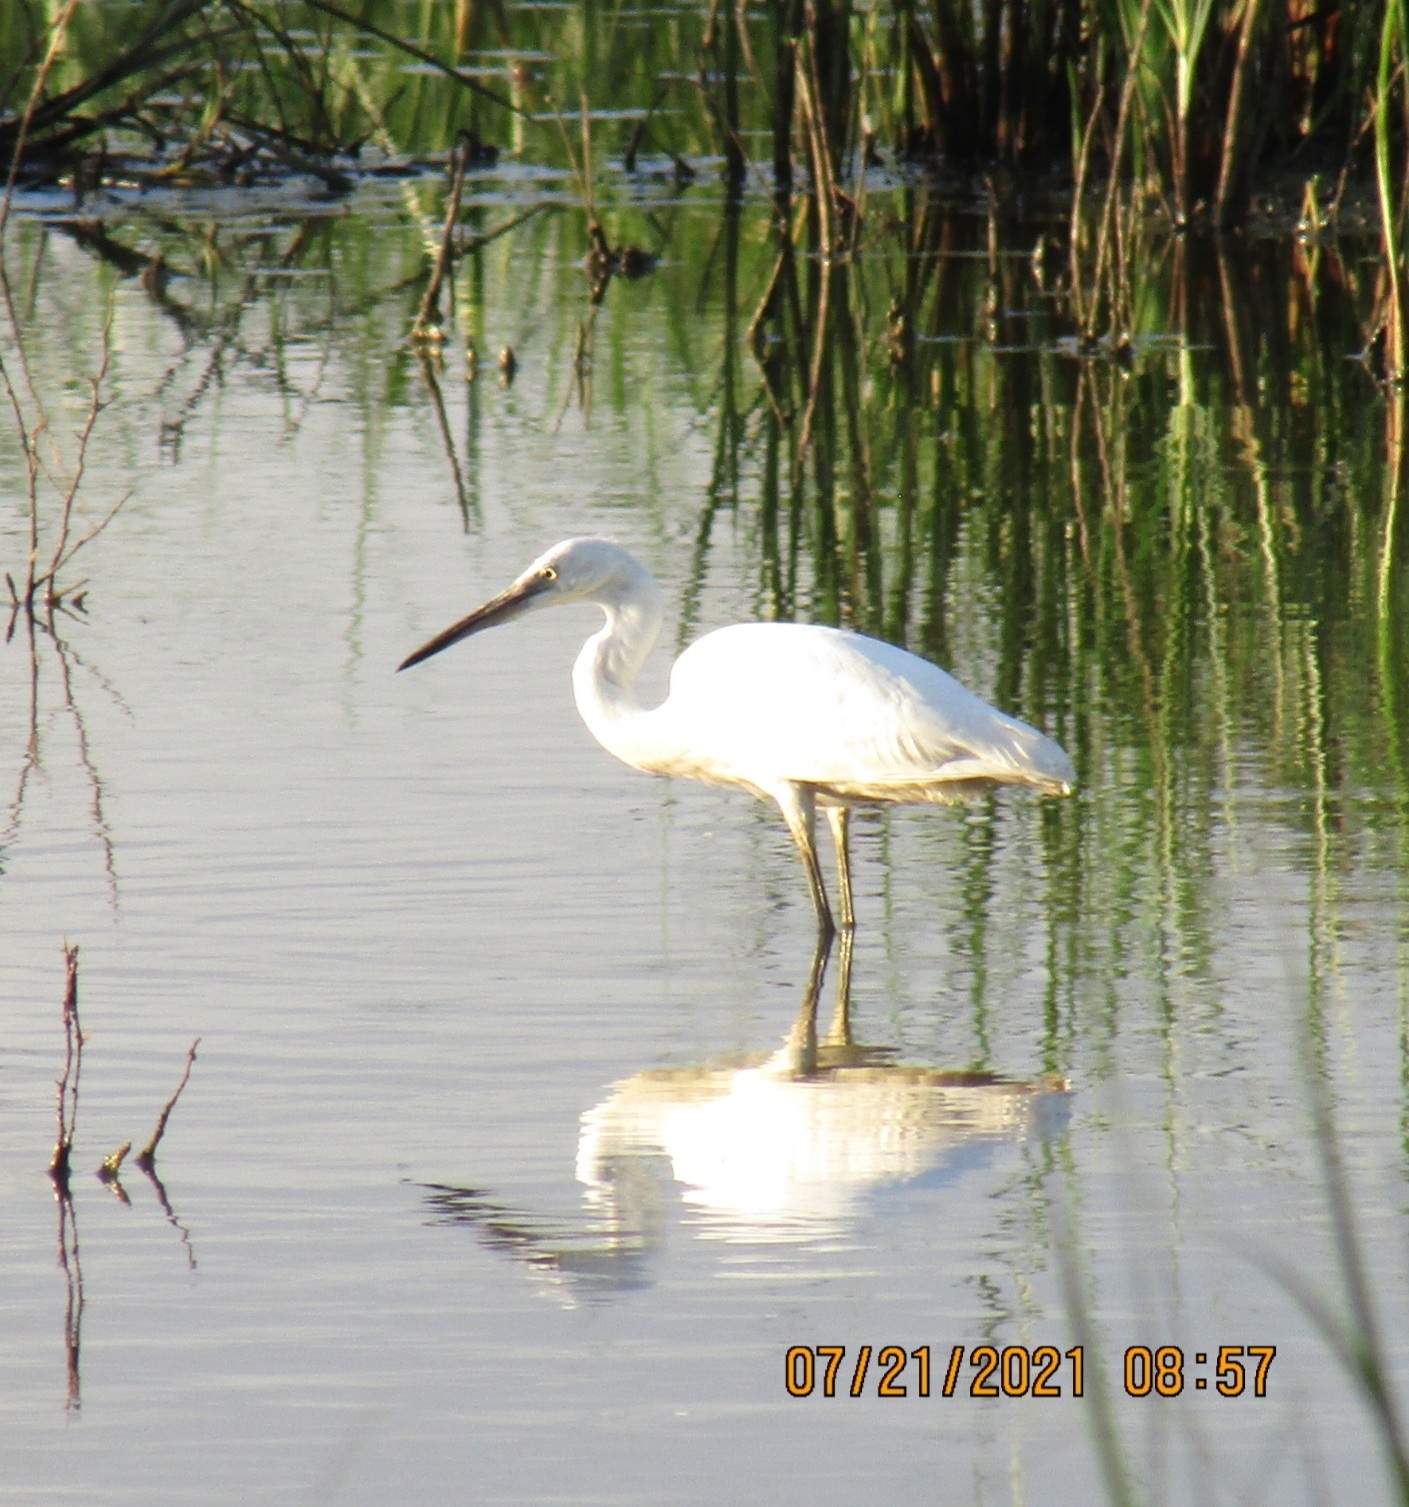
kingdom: Animalia
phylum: Chordata
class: Aves
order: Pelecaniformes
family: Ardeidae
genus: Egretta
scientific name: Egretta garzetta
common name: Little egret
